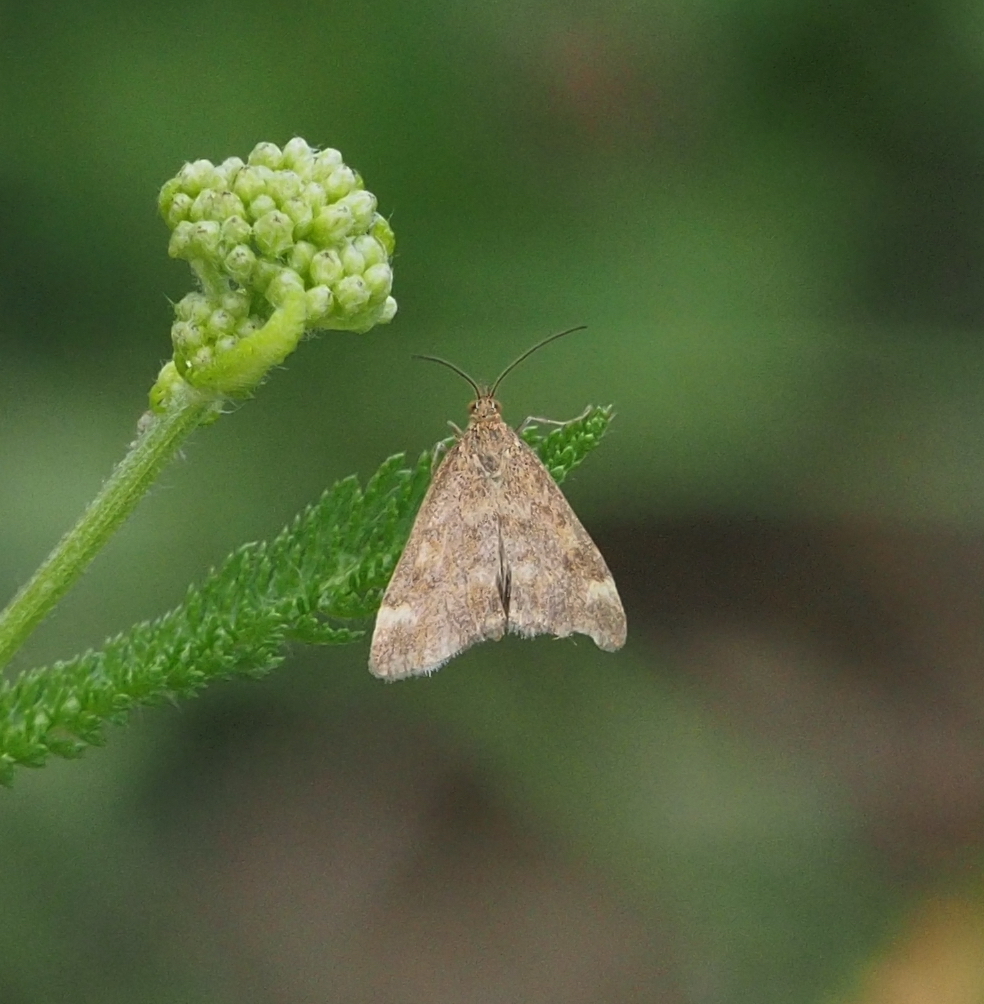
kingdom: Animalia
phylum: Arthropoda
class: Insecta
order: Lepidoptera
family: Crambidae
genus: Pyrausta
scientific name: Pyrausta despicata
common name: Straw-barred pearl
